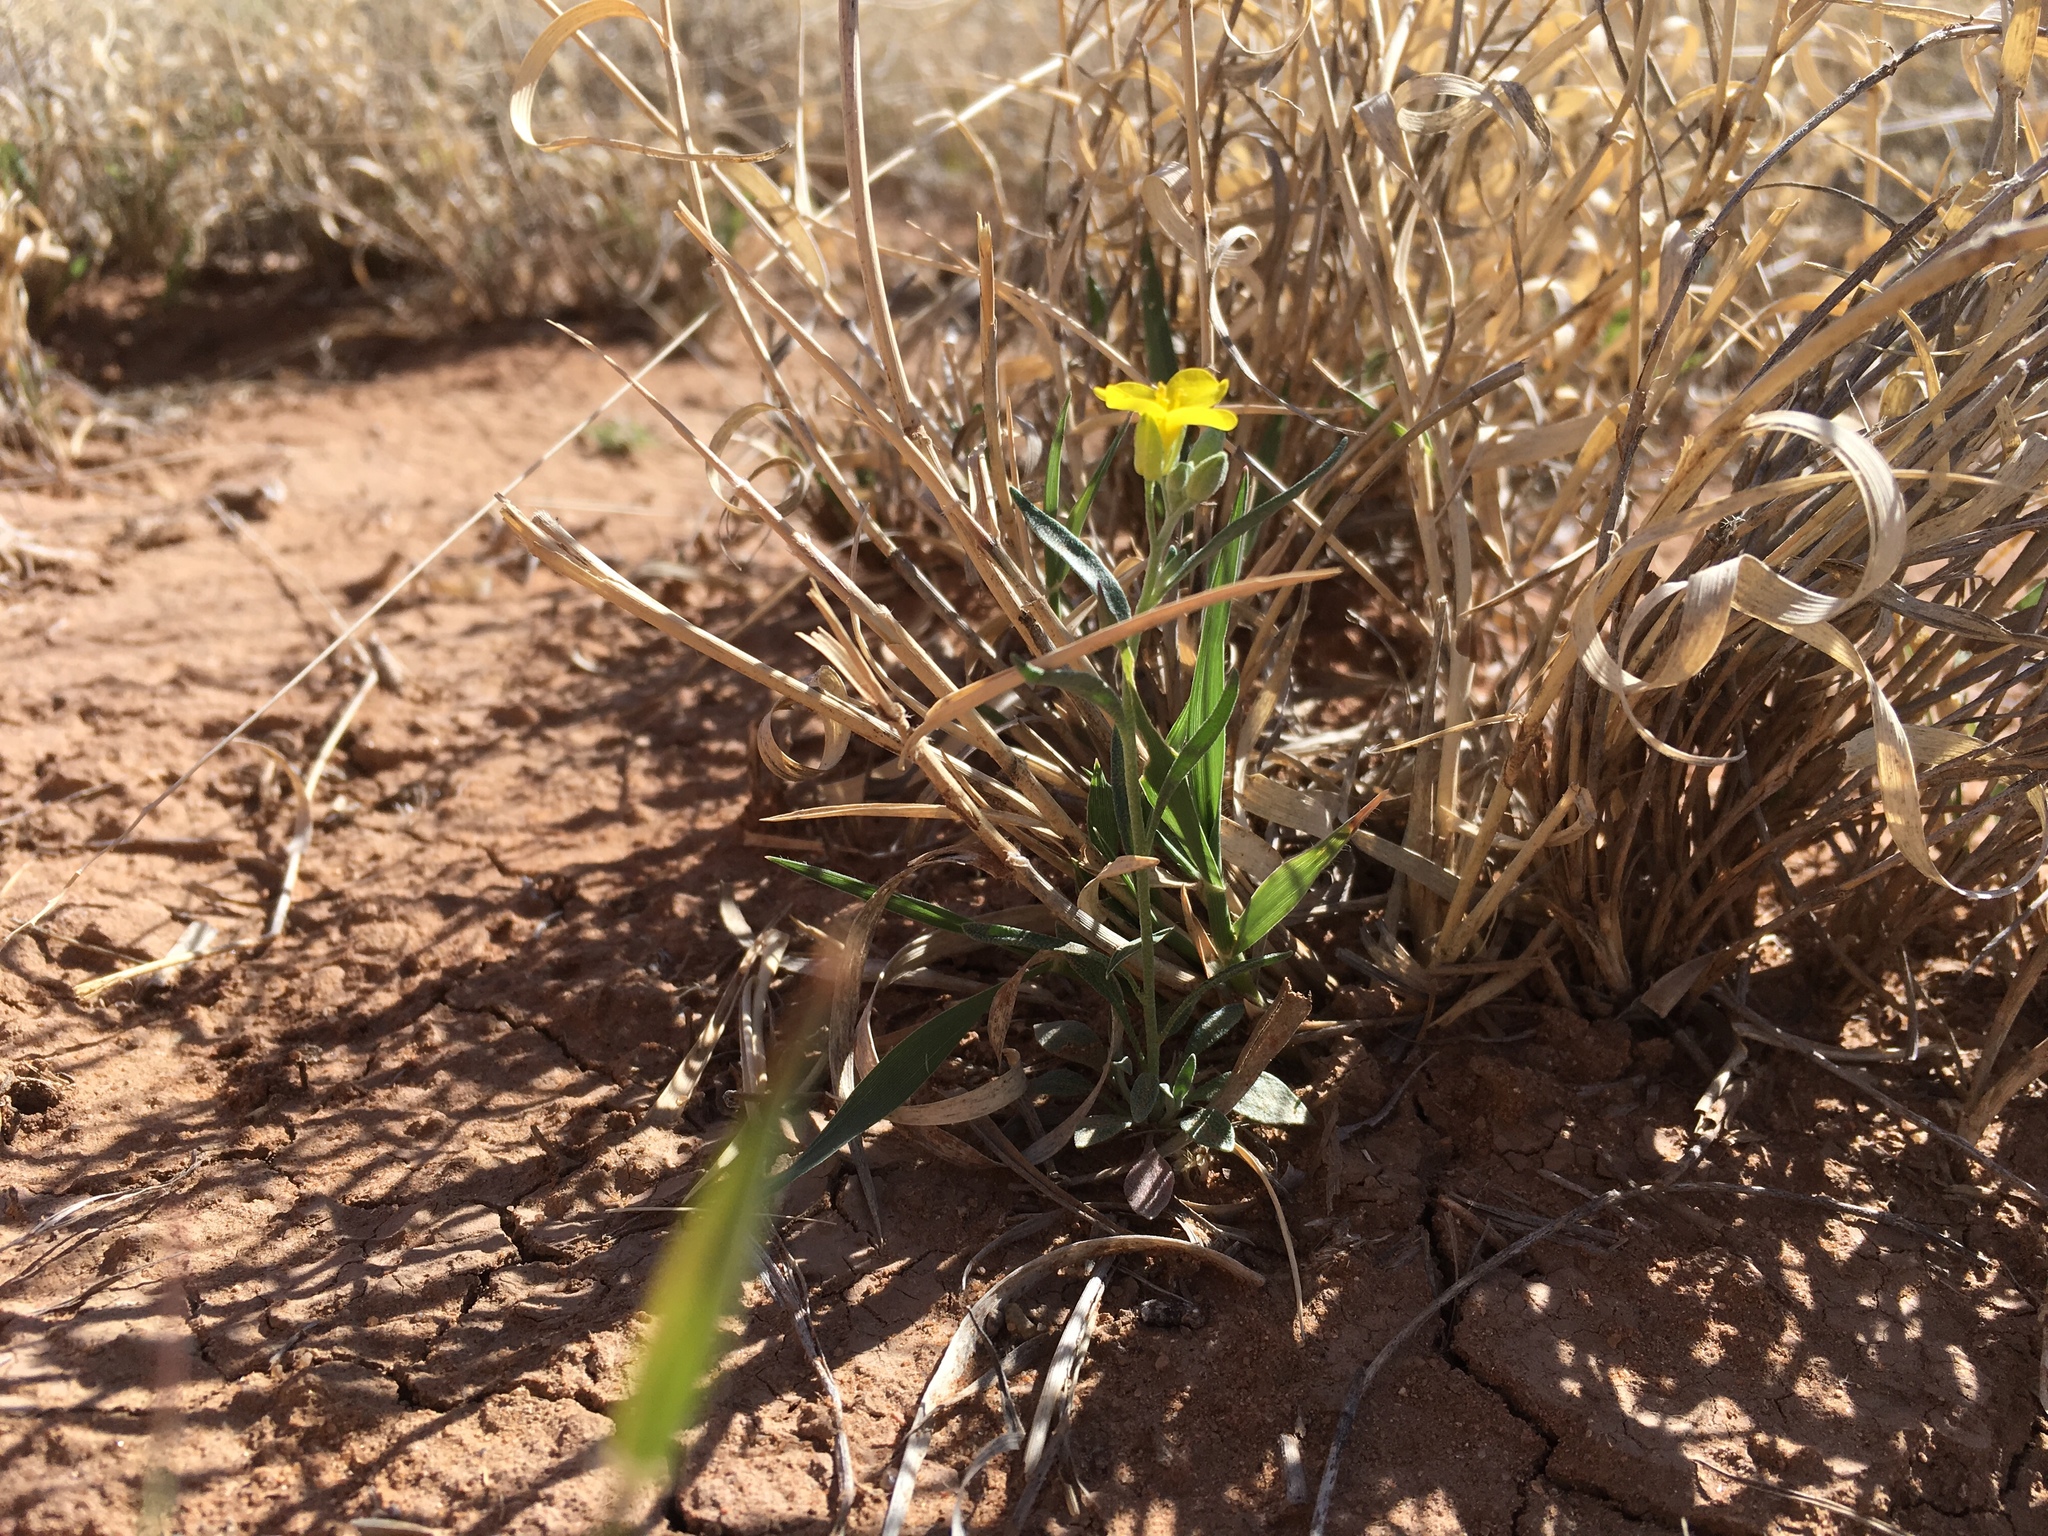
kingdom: Plantae
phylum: Tracheophyta
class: Magnoliopsida
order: Brassicales
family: Brassicaceae
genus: Physaria
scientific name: Physaria gordonii
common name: Gordon's bladderpod
